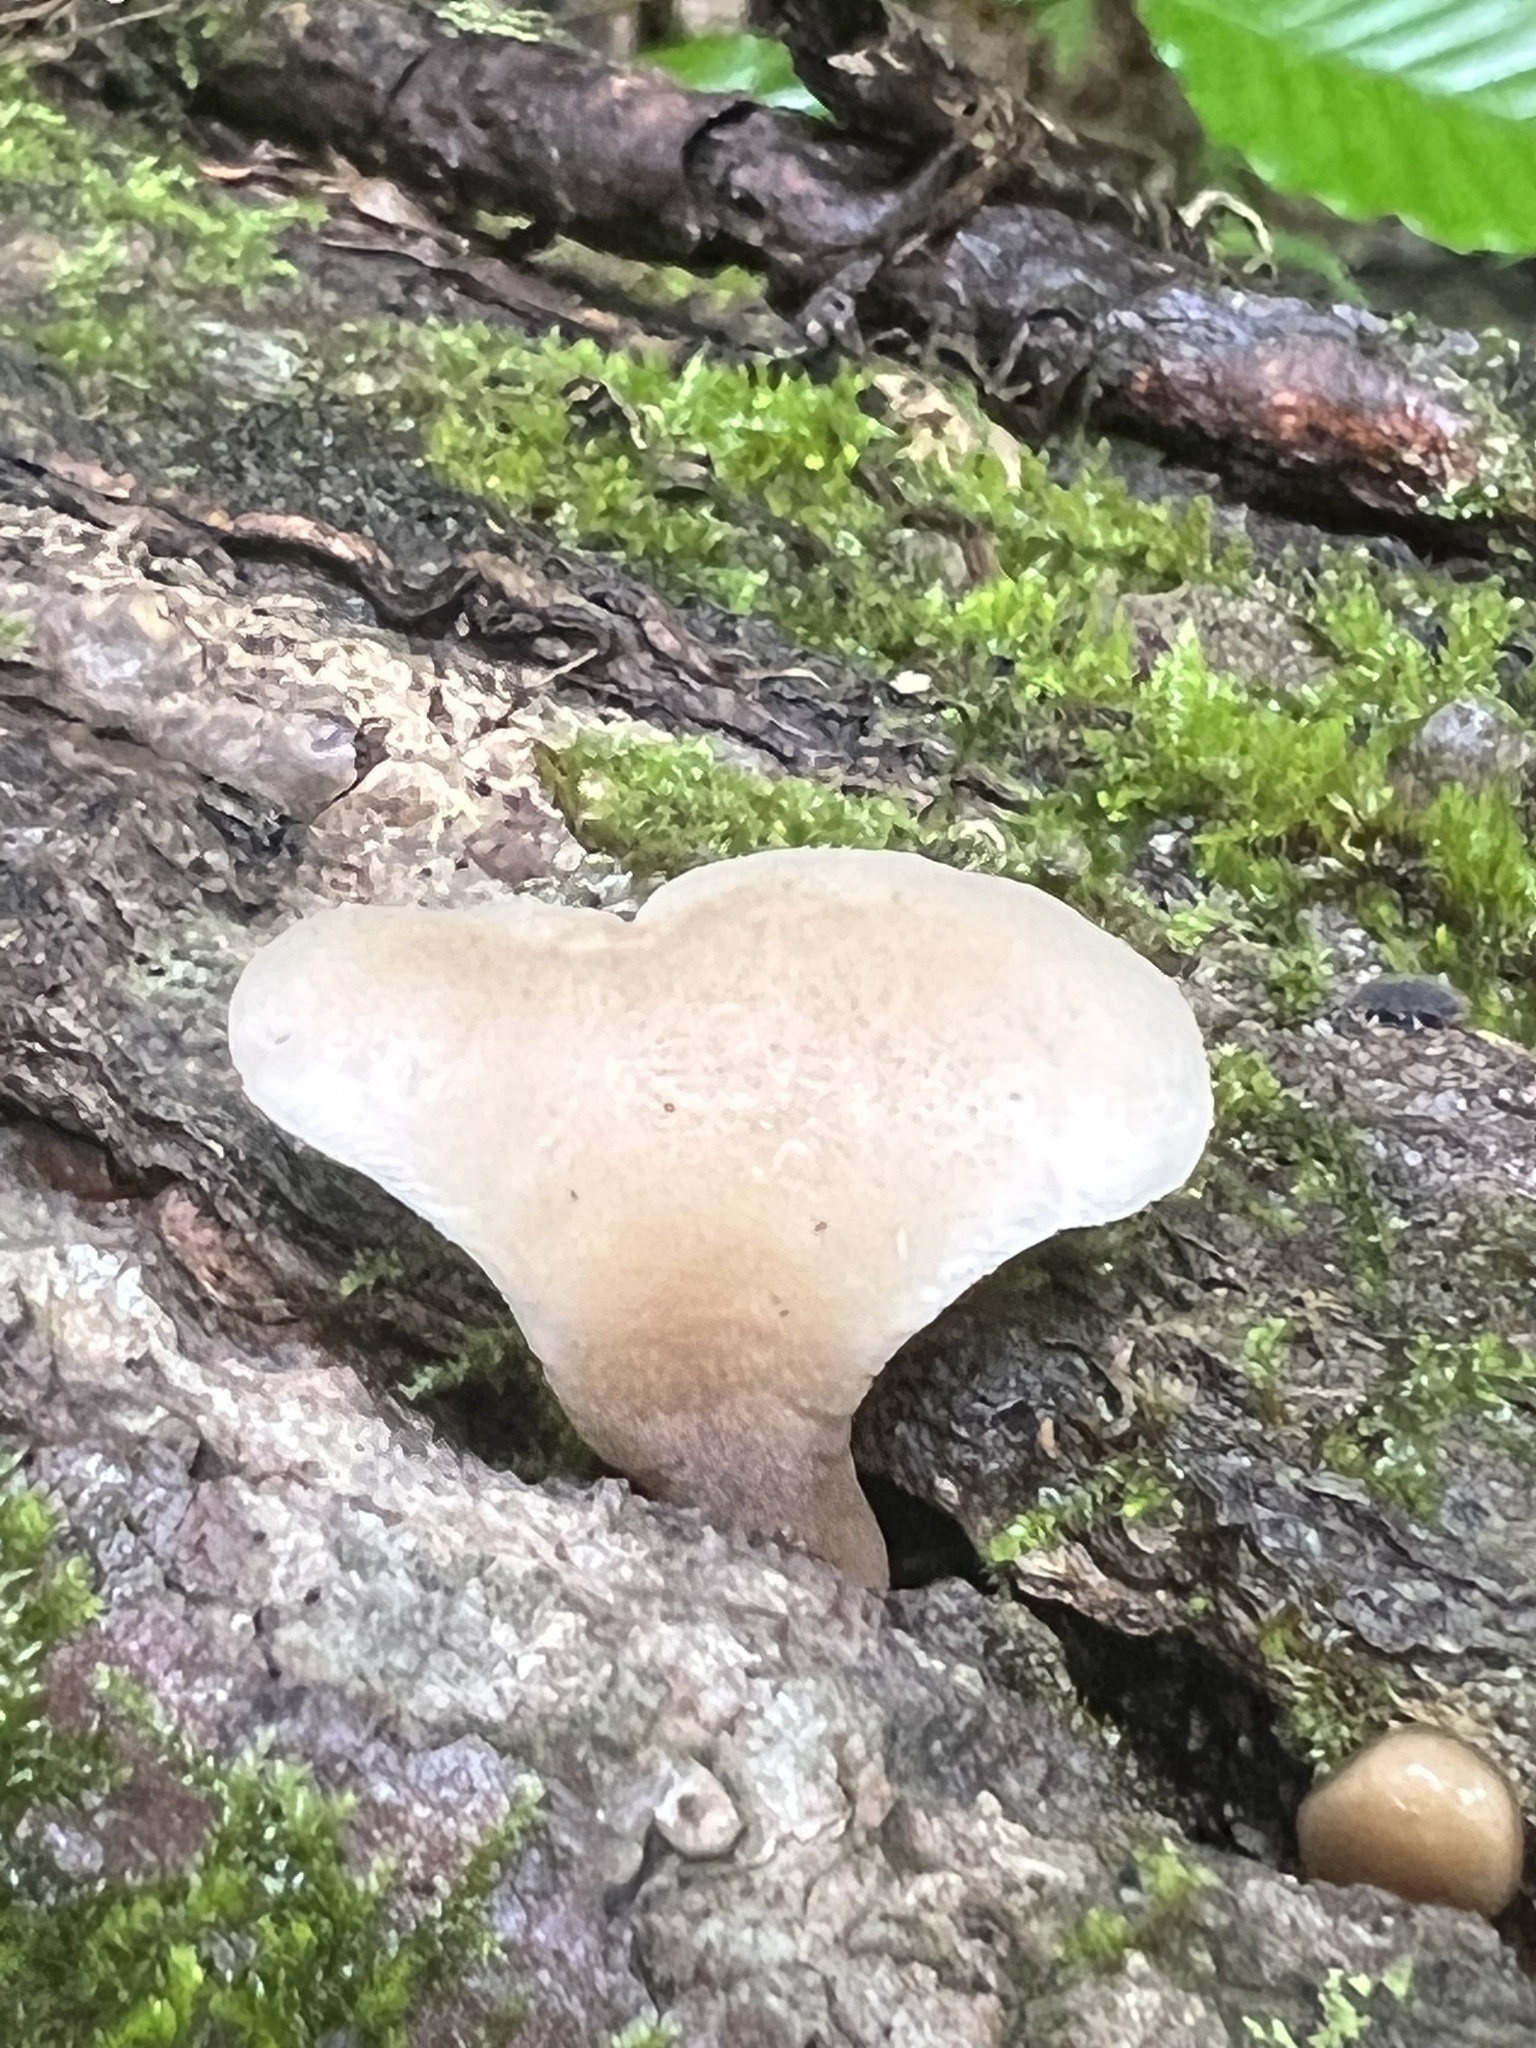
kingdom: Fungi
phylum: Basidiomycota
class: Agaricomycetes
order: Agaricales
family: Pleurotaceae
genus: Hohenbuehelia
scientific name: Hohenbuehelia angustata
